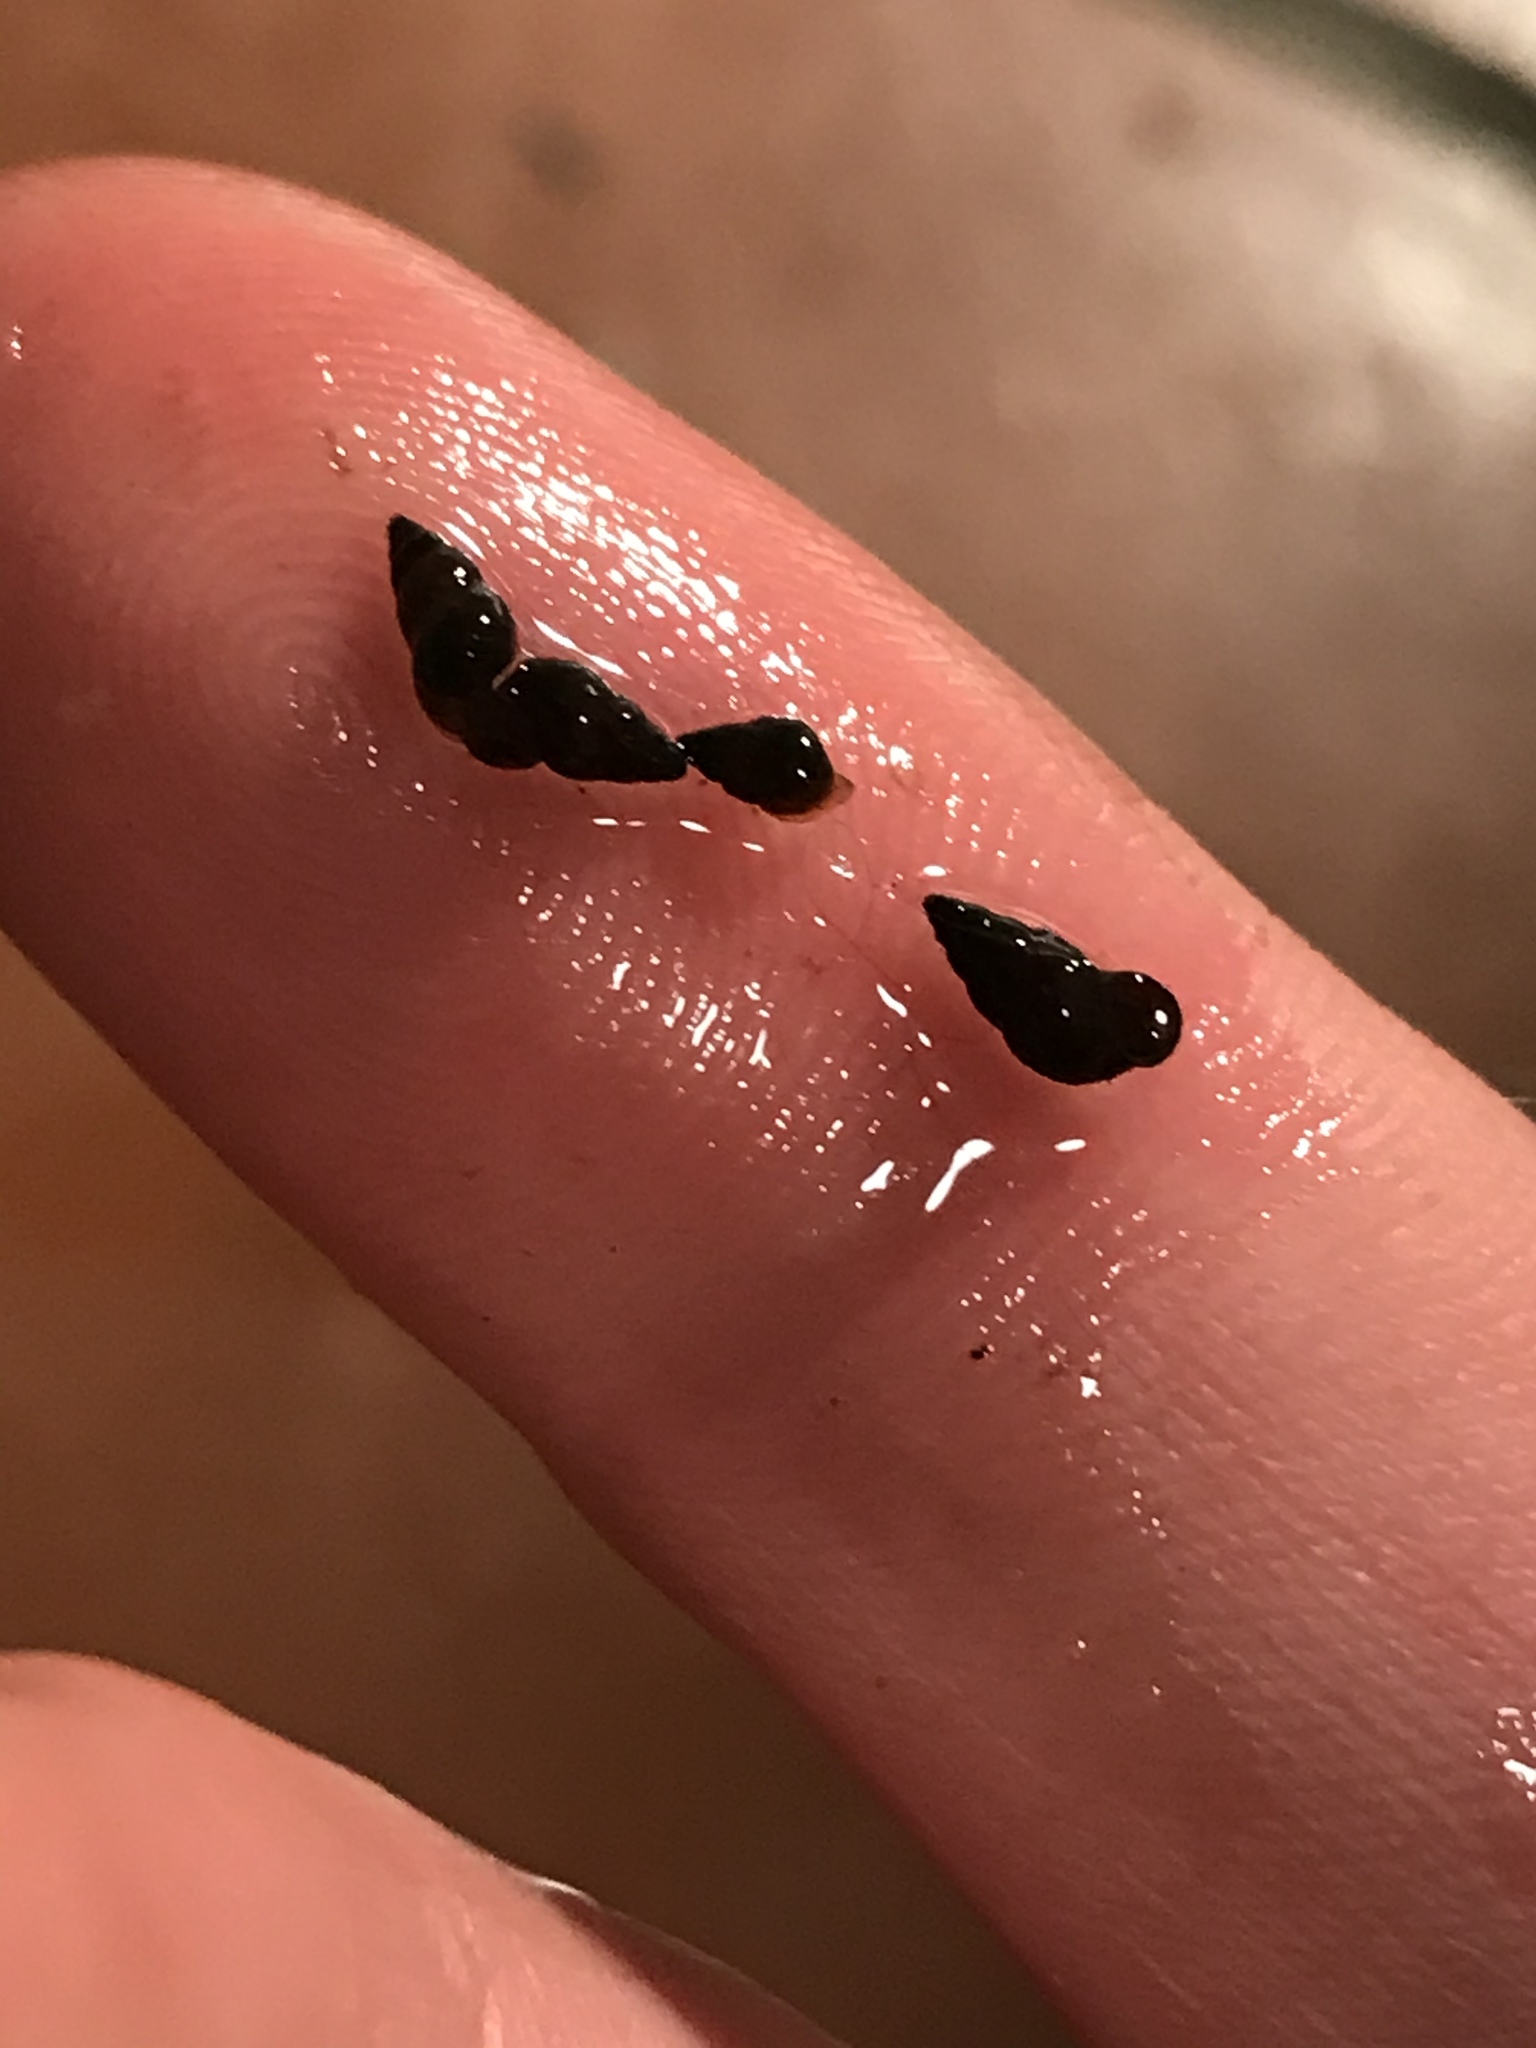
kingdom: Animalia
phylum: Mollusca
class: Gastropoda
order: Littorinimorpha
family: Tateidae
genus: Potamopyrgus
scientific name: Potamopyrgus antipodarum
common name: Jenkins' spire snail
